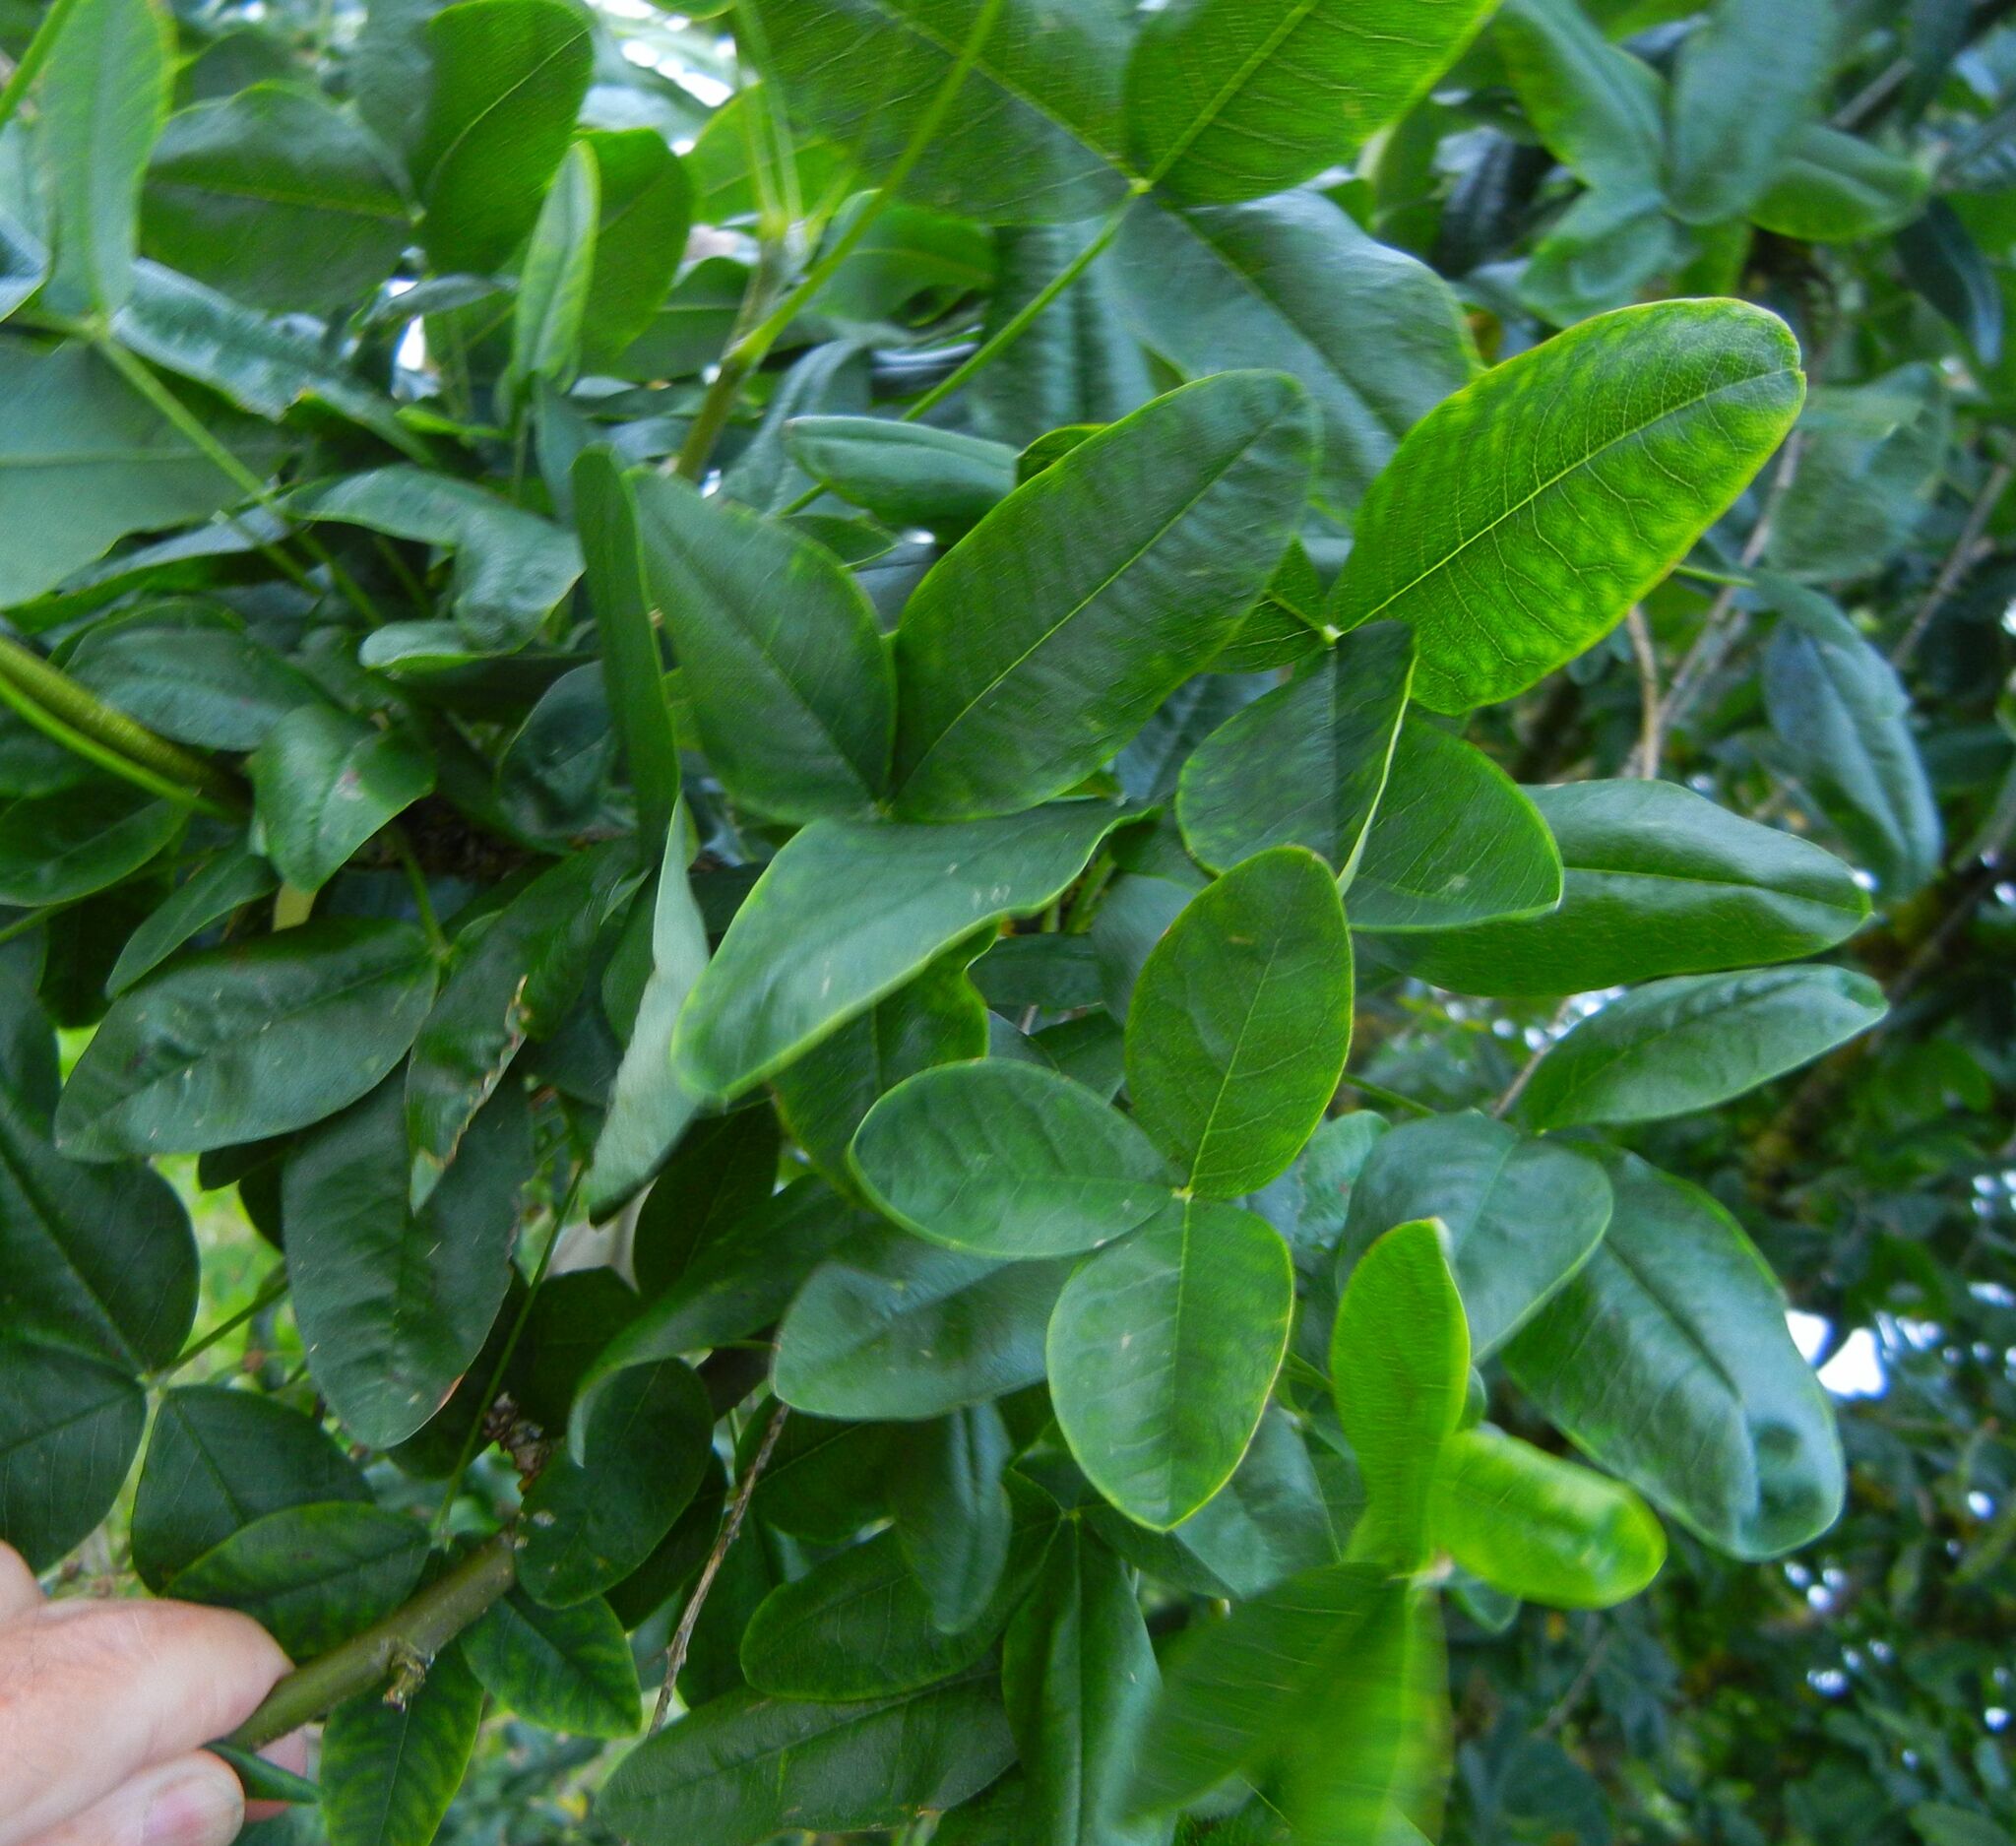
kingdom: Plantae
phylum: Tracheophyta
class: Magnoliopsida
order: Fabales
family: Fabaceae
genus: Laburnum
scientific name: Laburnum anagyroides
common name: Laburnum
